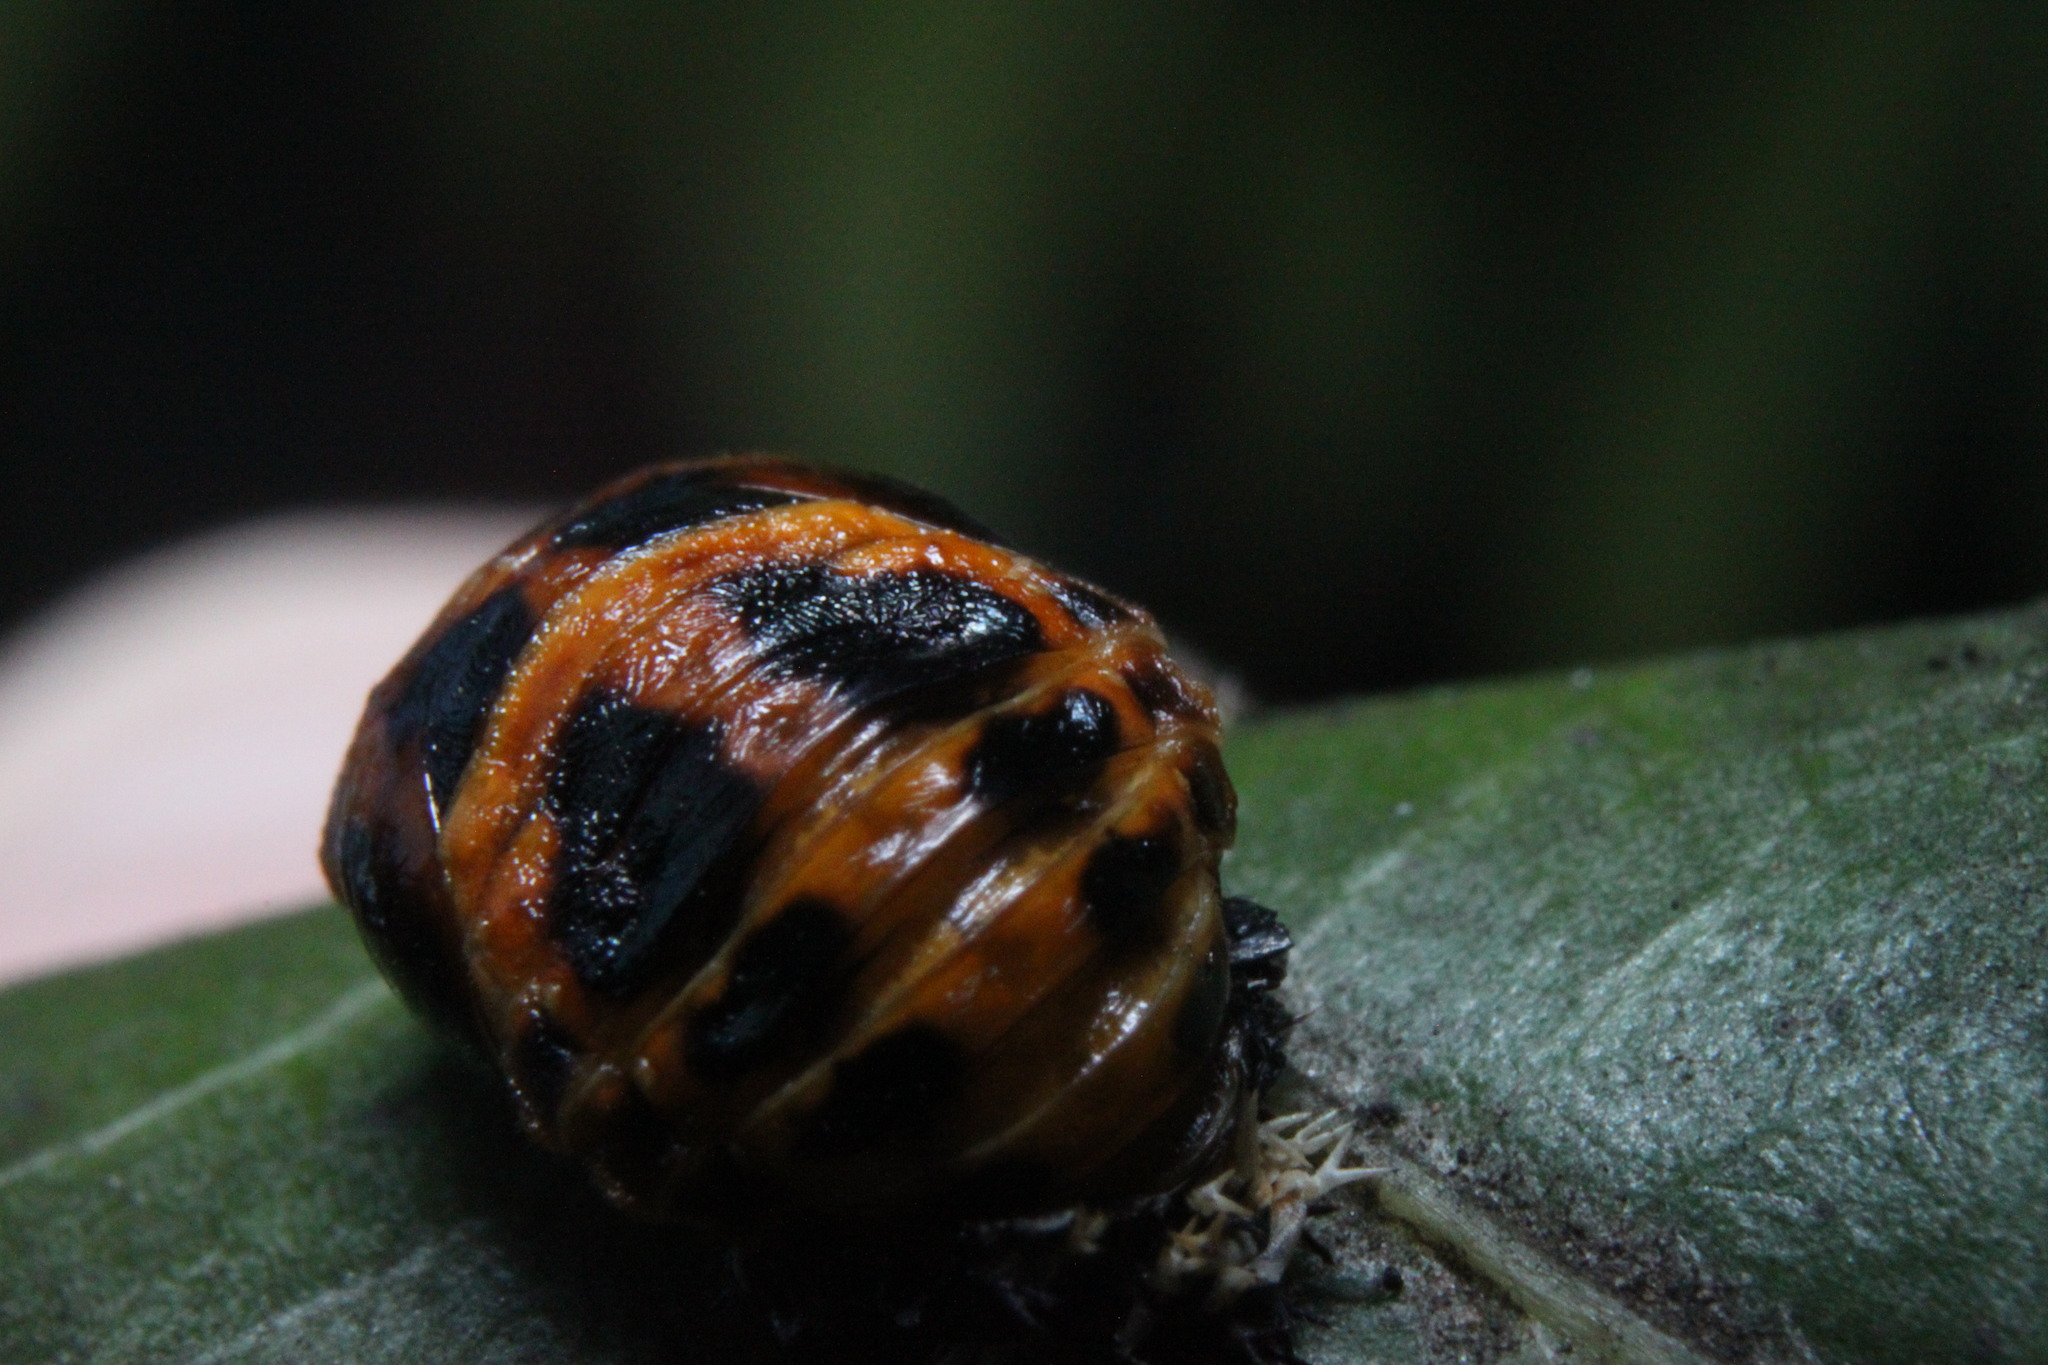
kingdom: Animalia
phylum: Arthropoda
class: Insecta
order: Coleoptera
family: Coccinellidae
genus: Harmonia
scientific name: Harmonia axyridis
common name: Harlequin ladybird
